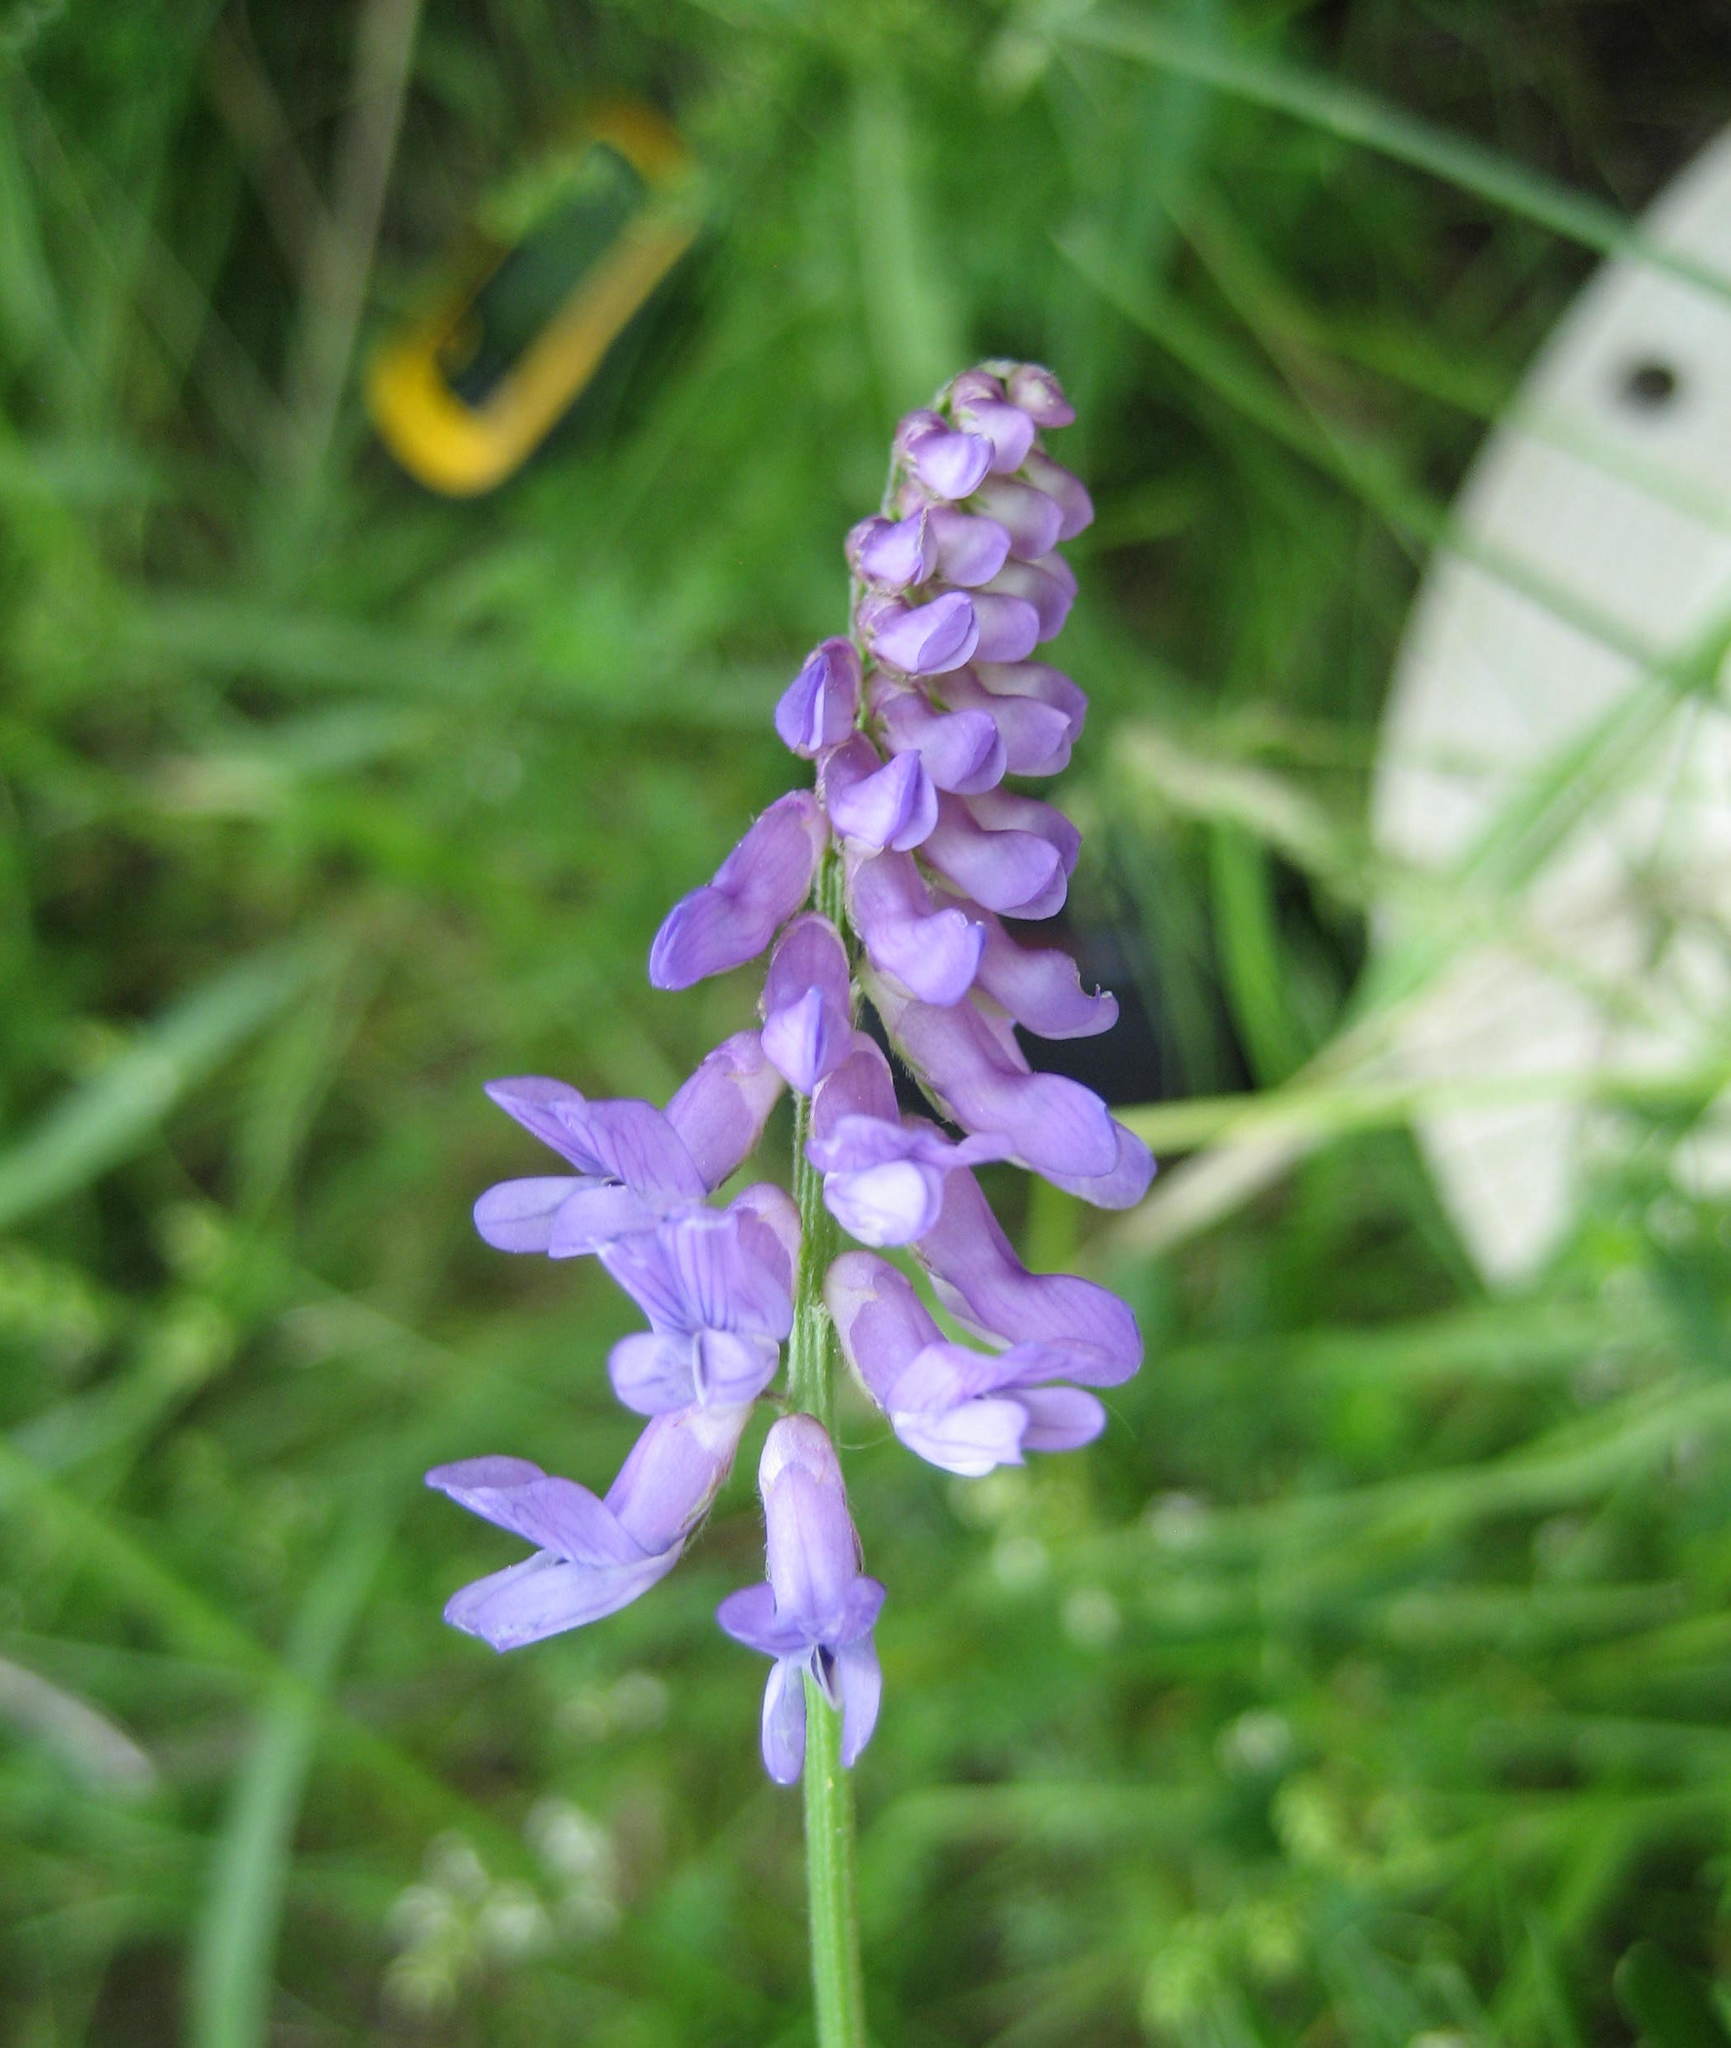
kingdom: Plantae
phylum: Tracheophyta
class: Magnoliopsida
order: Fabales
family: Fabaceae
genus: Vicia
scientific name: Vicia cracca
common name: Bird vetch
